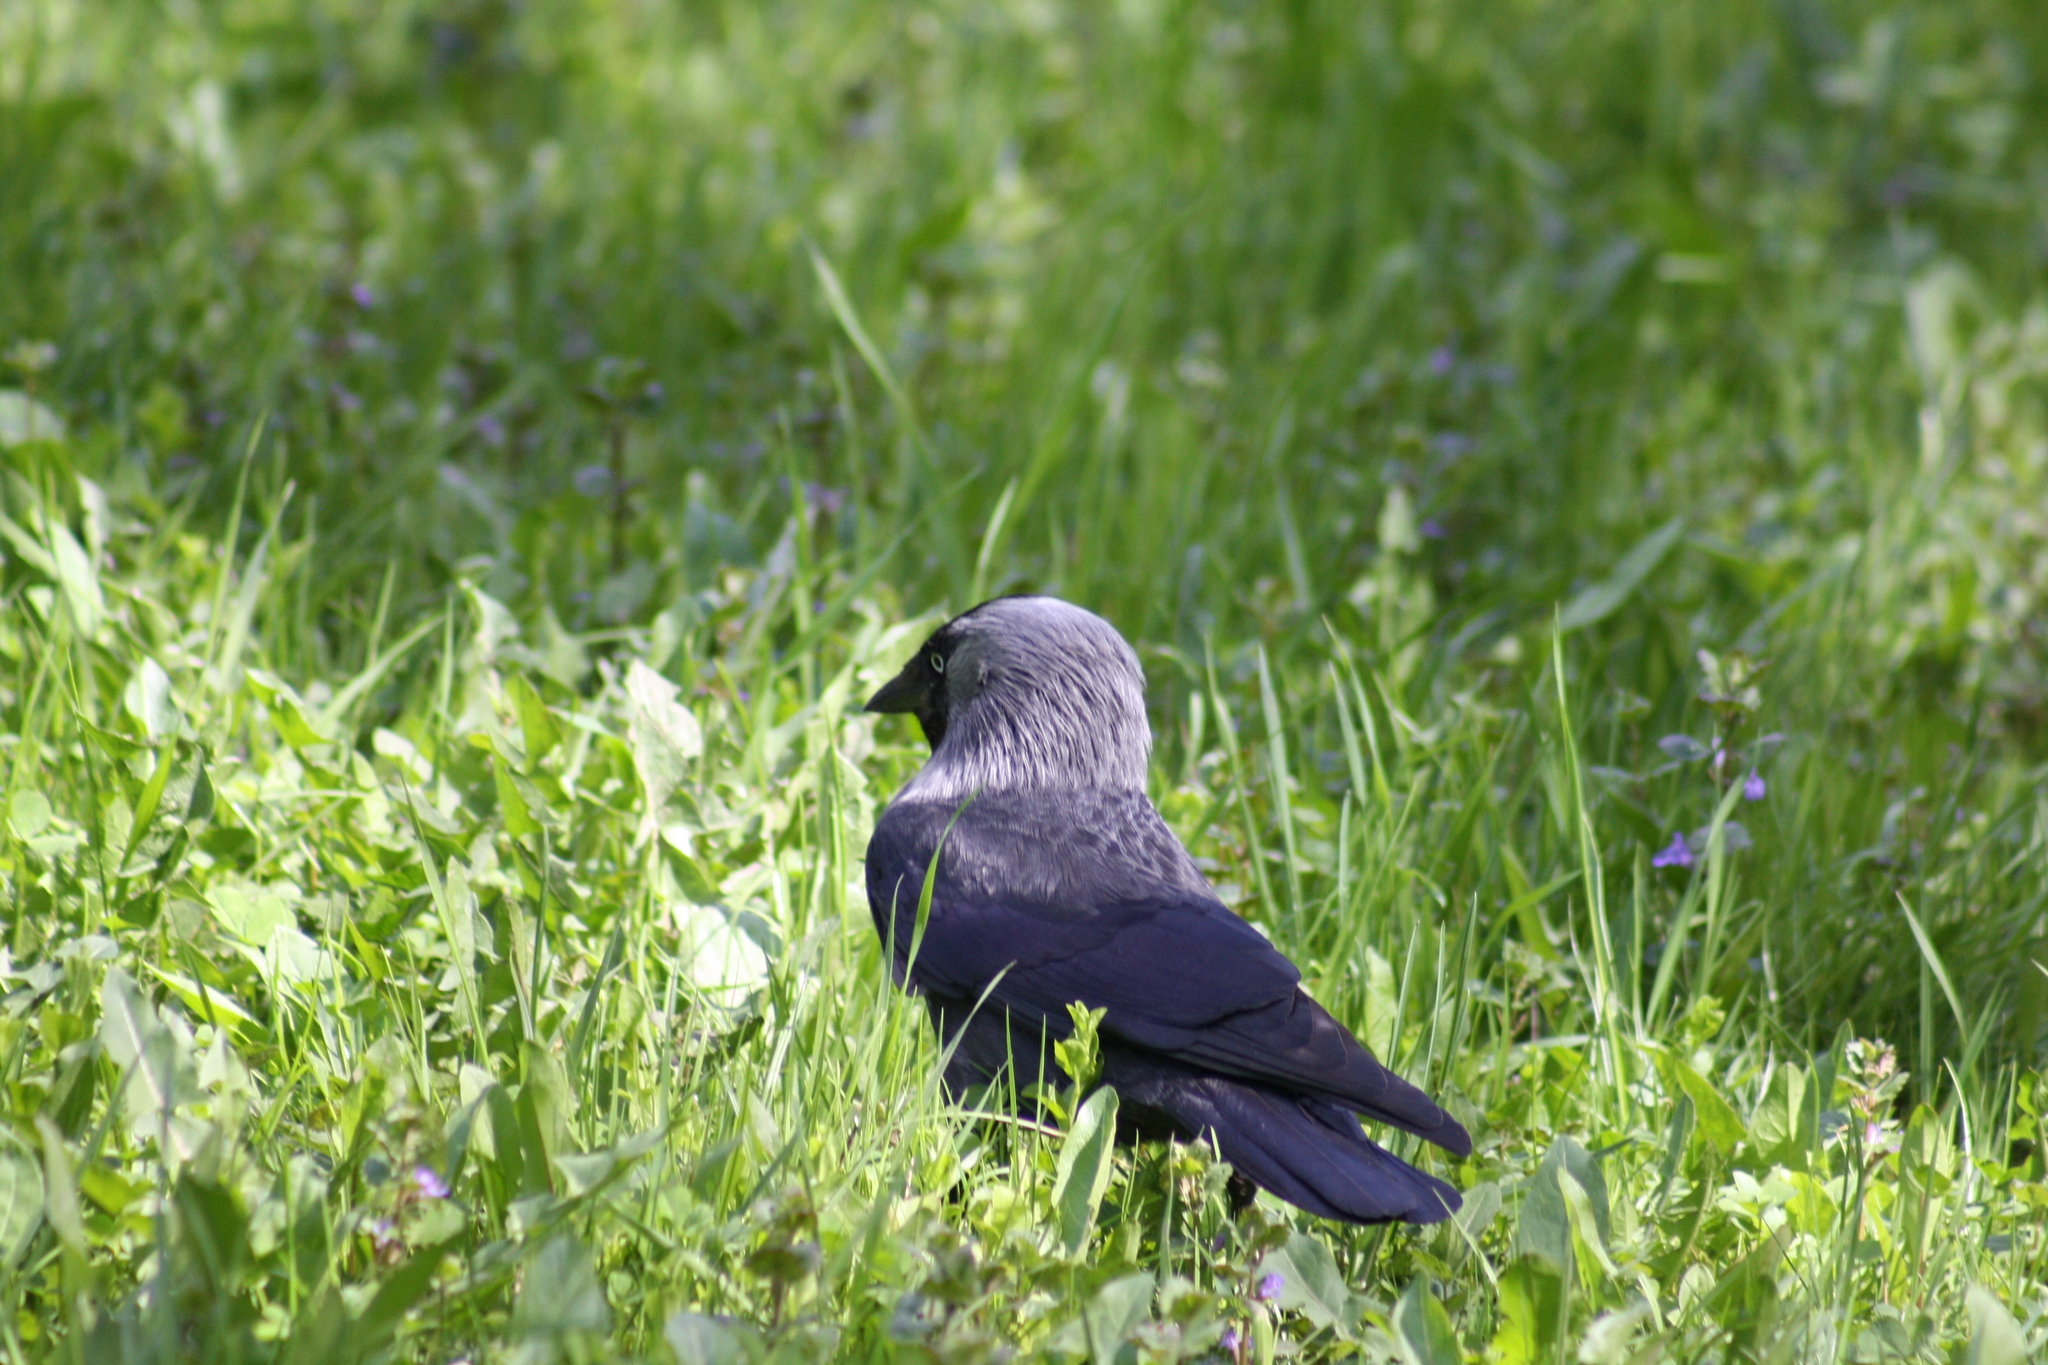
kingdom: Animalia
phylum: Chordata
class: Aves
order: Passeriformes
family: Corvidae
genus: Coloeus
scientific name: Coloeus monedula
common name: Western jackdaw
